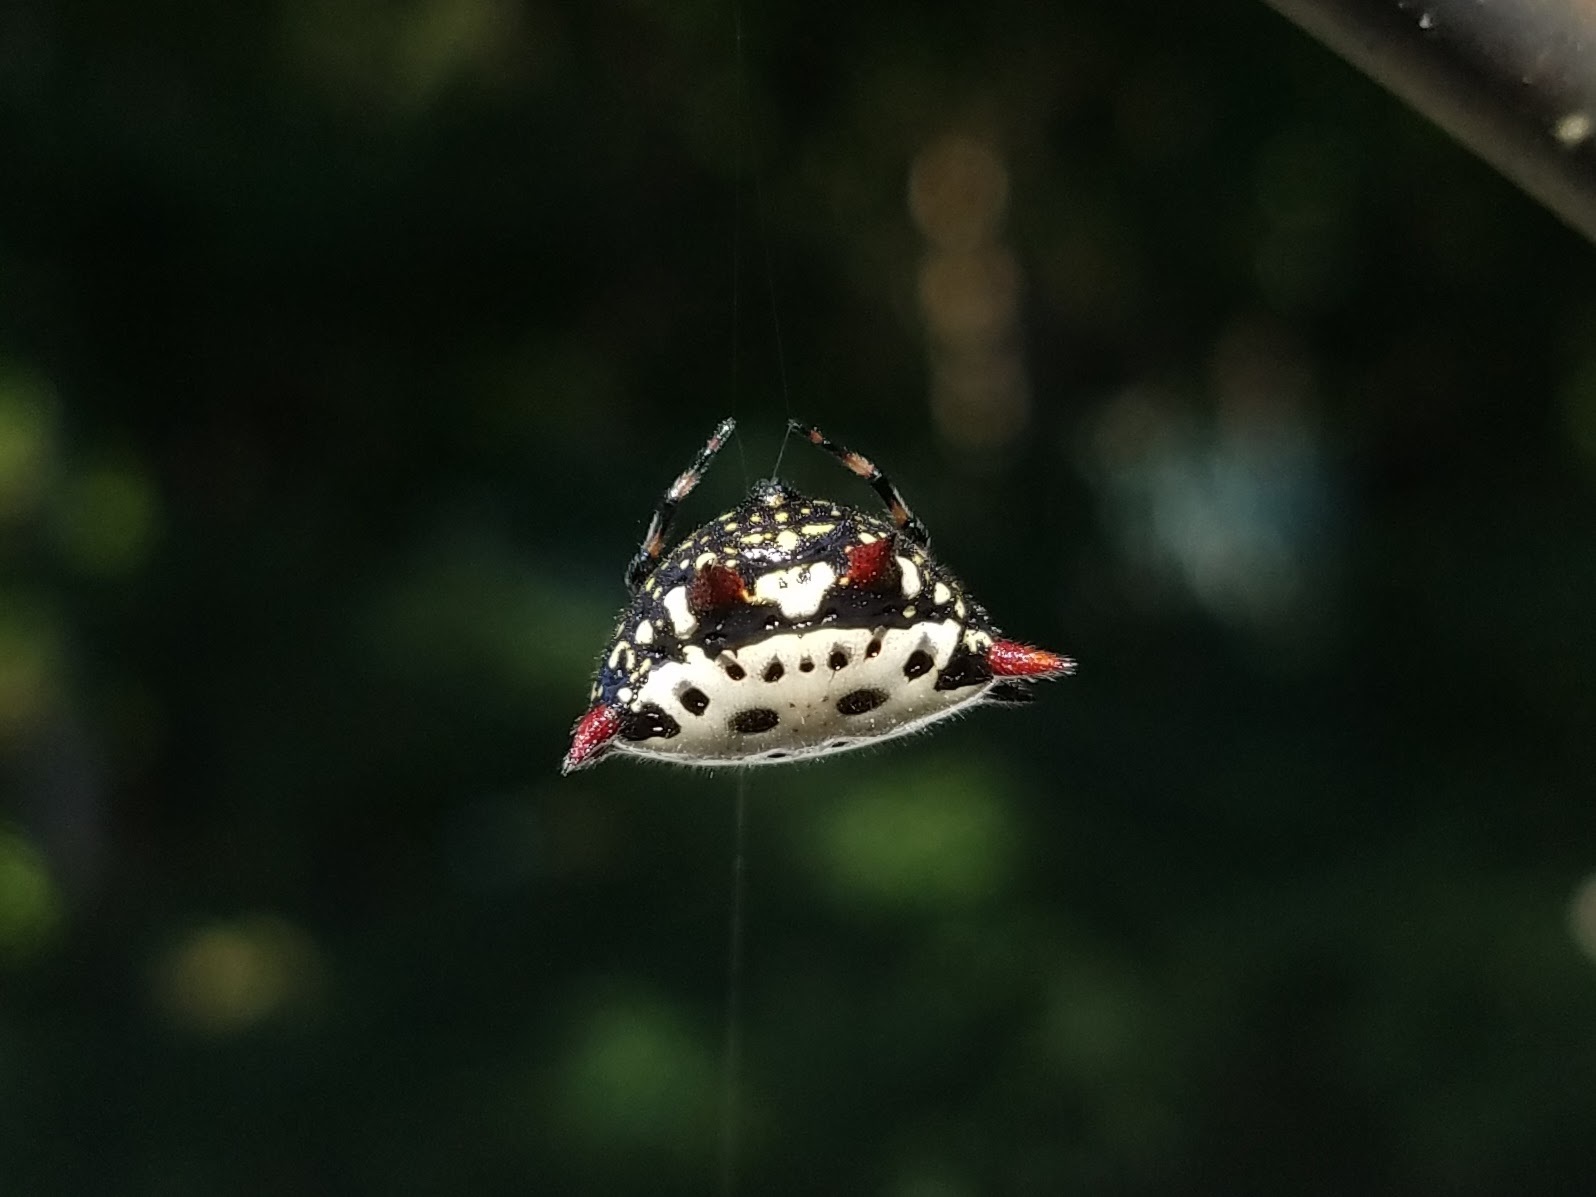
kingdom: Animalia
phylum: Arthropoda
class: Arachnida
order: Araneae
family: Araneidae
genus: Gasteracantha
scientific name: Gasteracantha cancriformis
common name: Orb weavers
